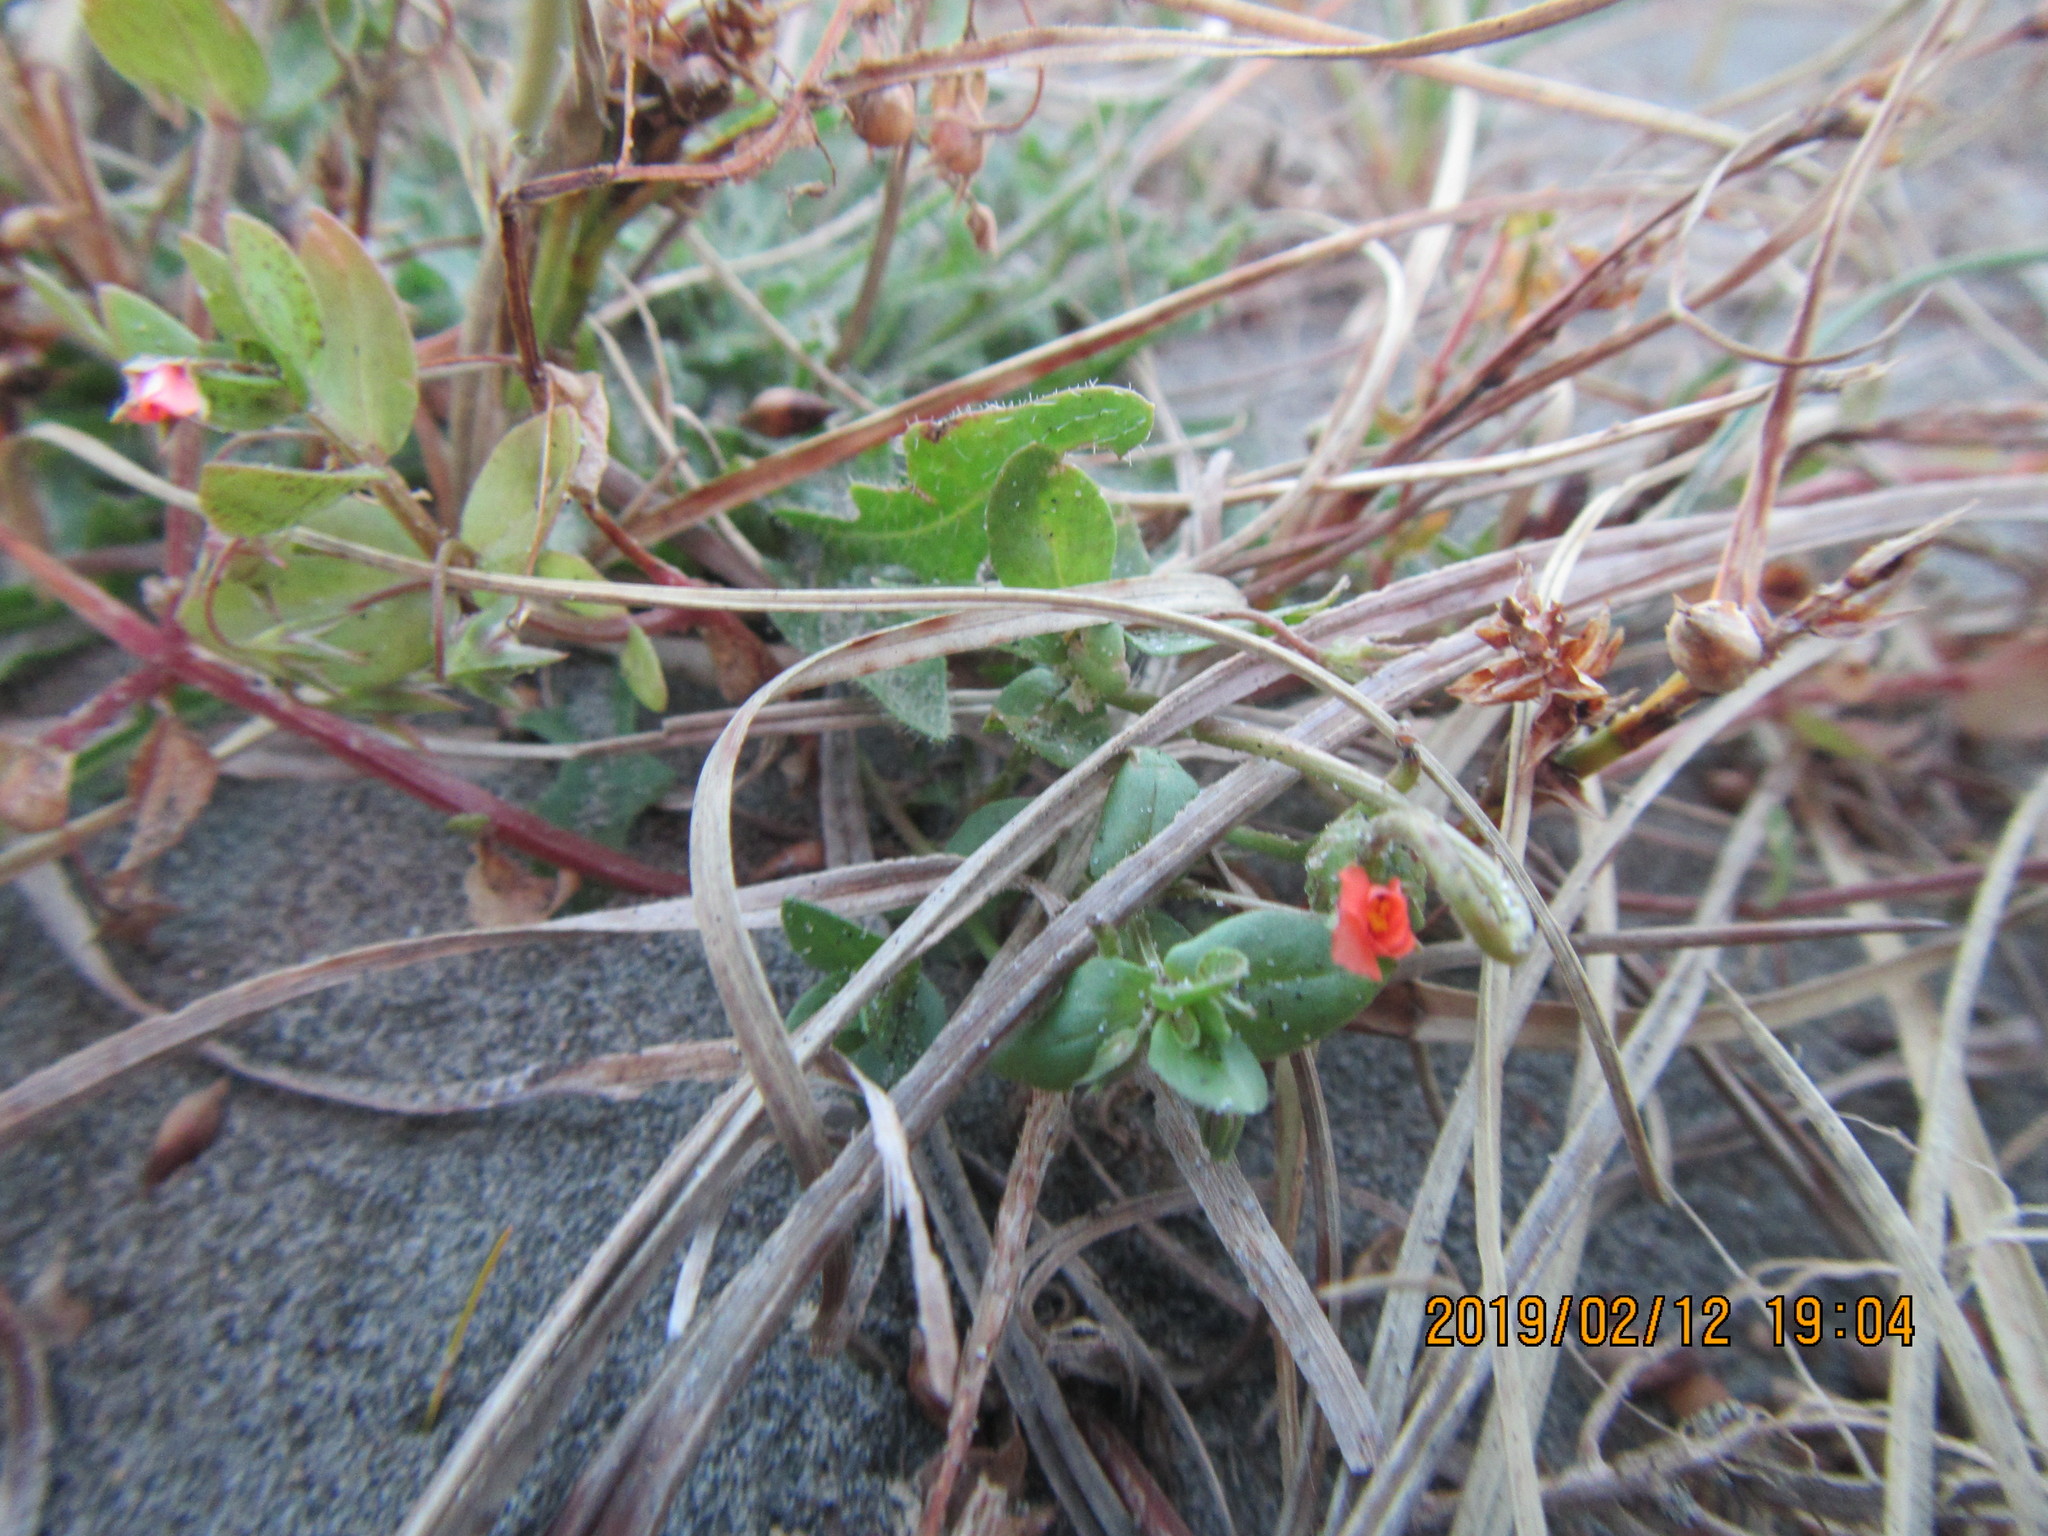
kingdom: Plantae
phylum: Tracheophyta
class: Magnoliopsida
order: Ericales
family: Primulaceae
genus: Lysimachia
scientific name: Lysimachia arvensis
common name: Scarlet pimpernel
